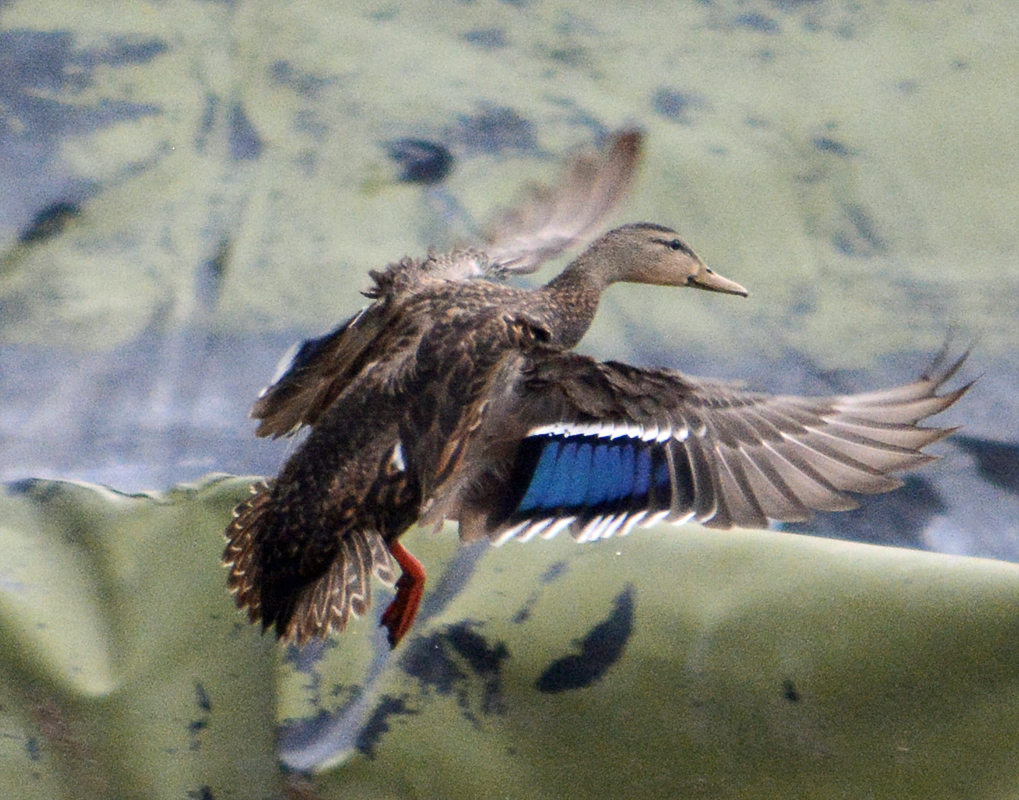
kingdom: Animalia
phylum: Chordata
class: Aves
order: Anseriformes
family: Anatidae
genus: Anas
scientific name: Anas diazi
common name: Mexican duck
